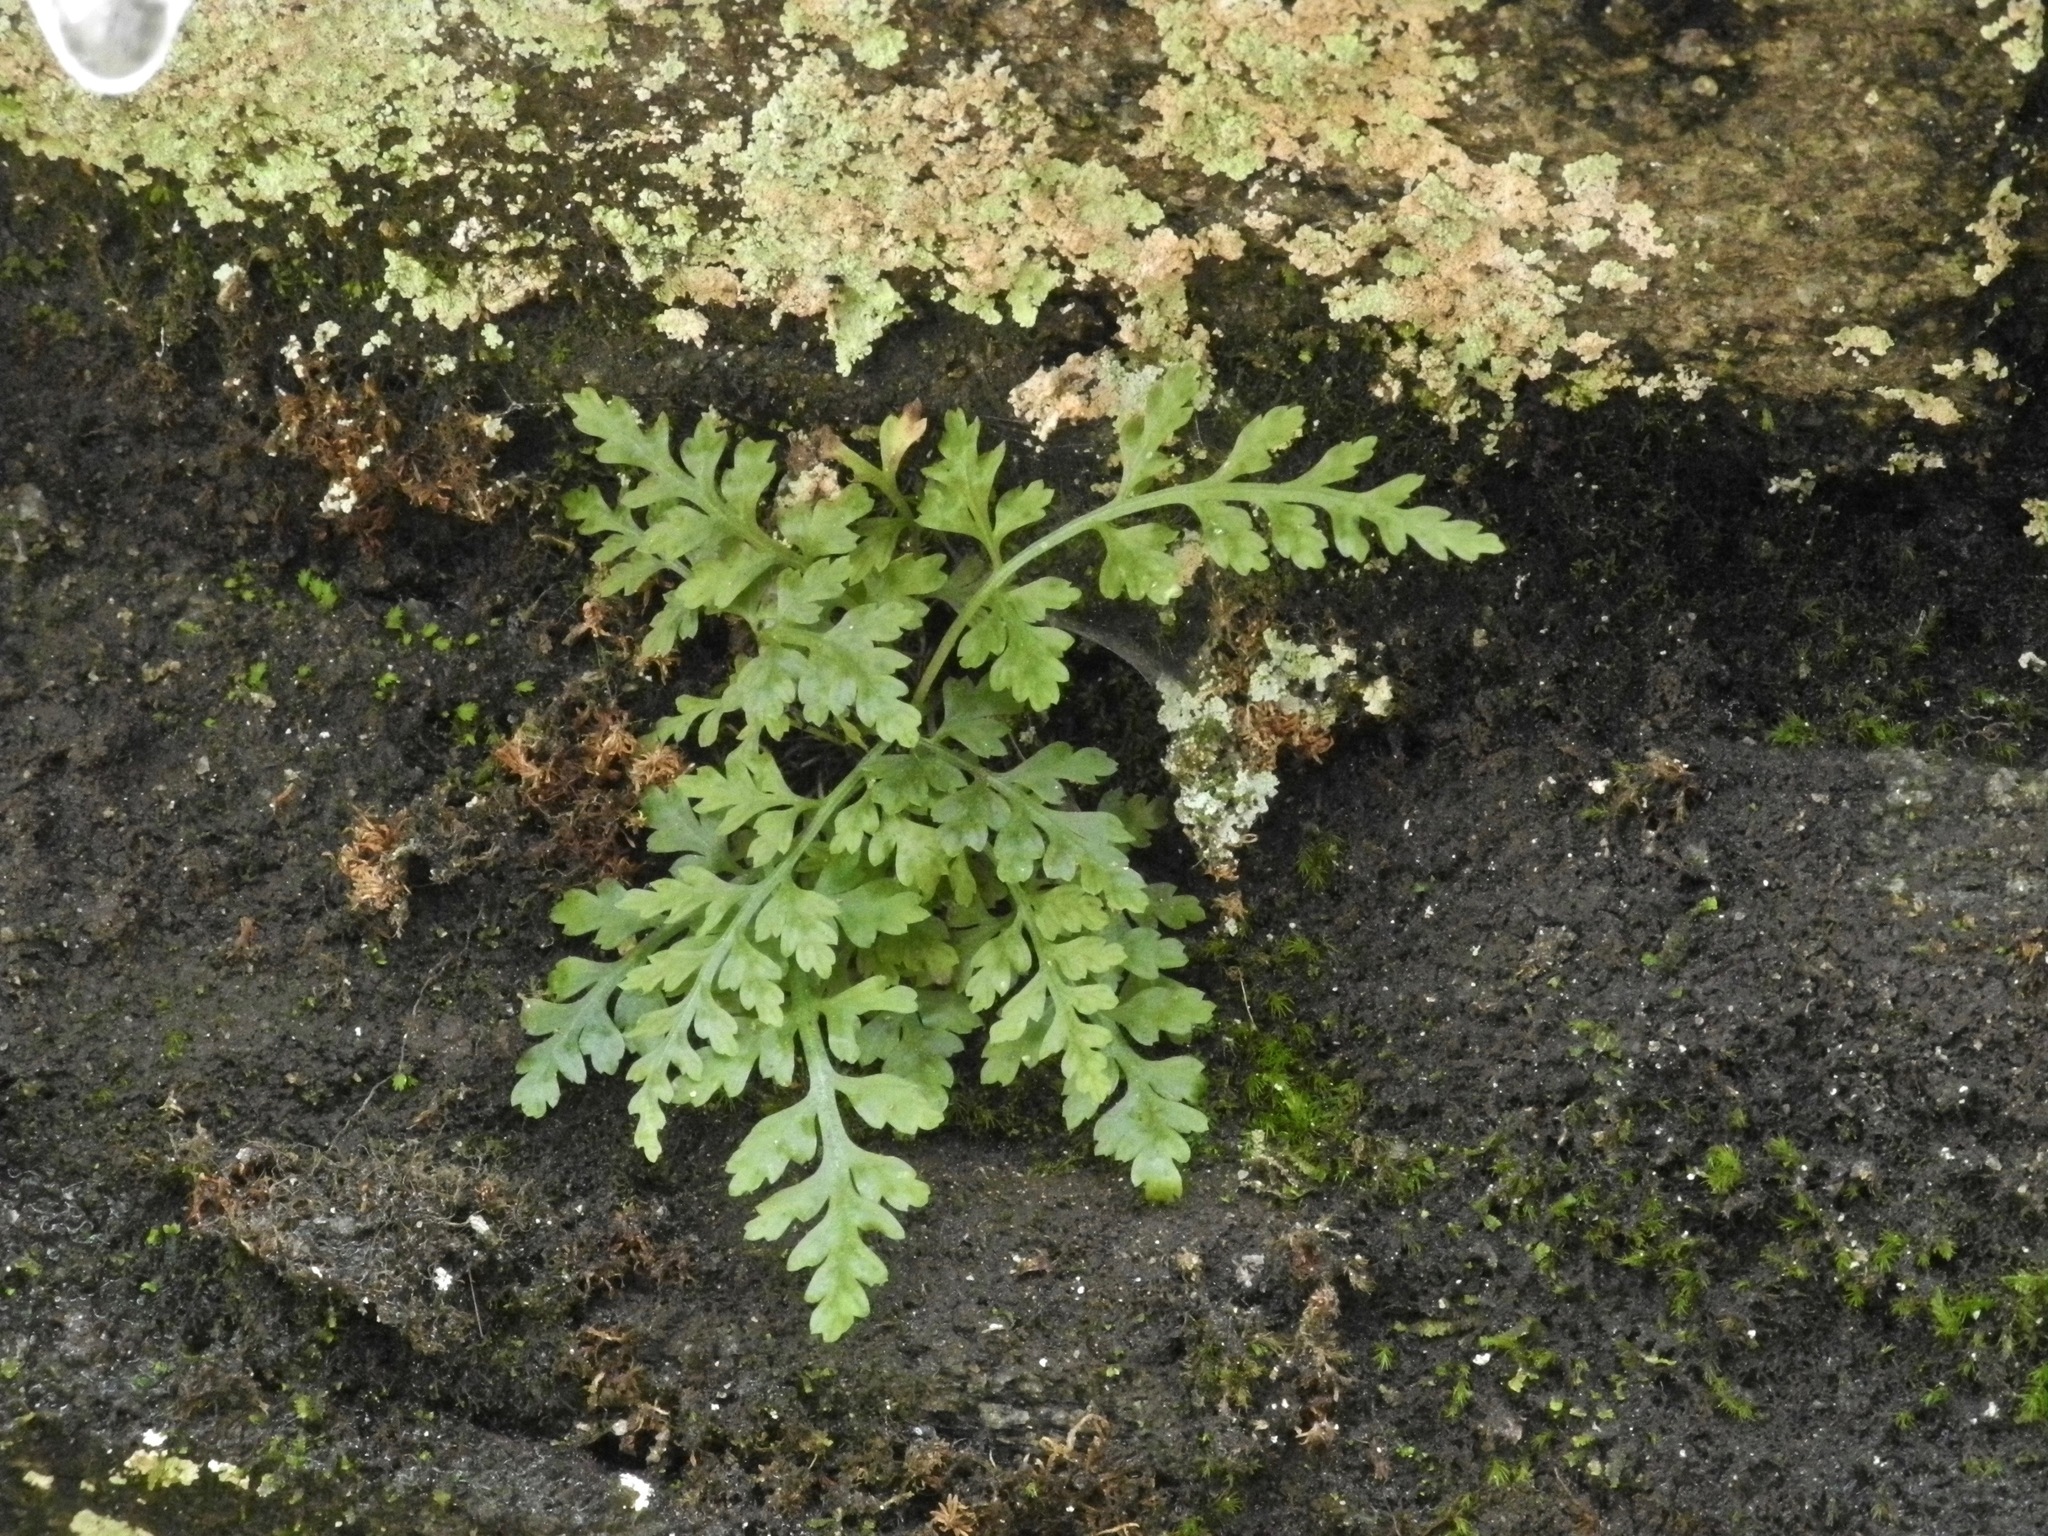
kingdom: Plantae
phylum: Tracheophyta
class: Polypodiopsida
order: Polypodiales
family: Aspleniaceae
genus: Asplenium
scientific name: Asplenium montanum
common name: Mountain spleenwort
